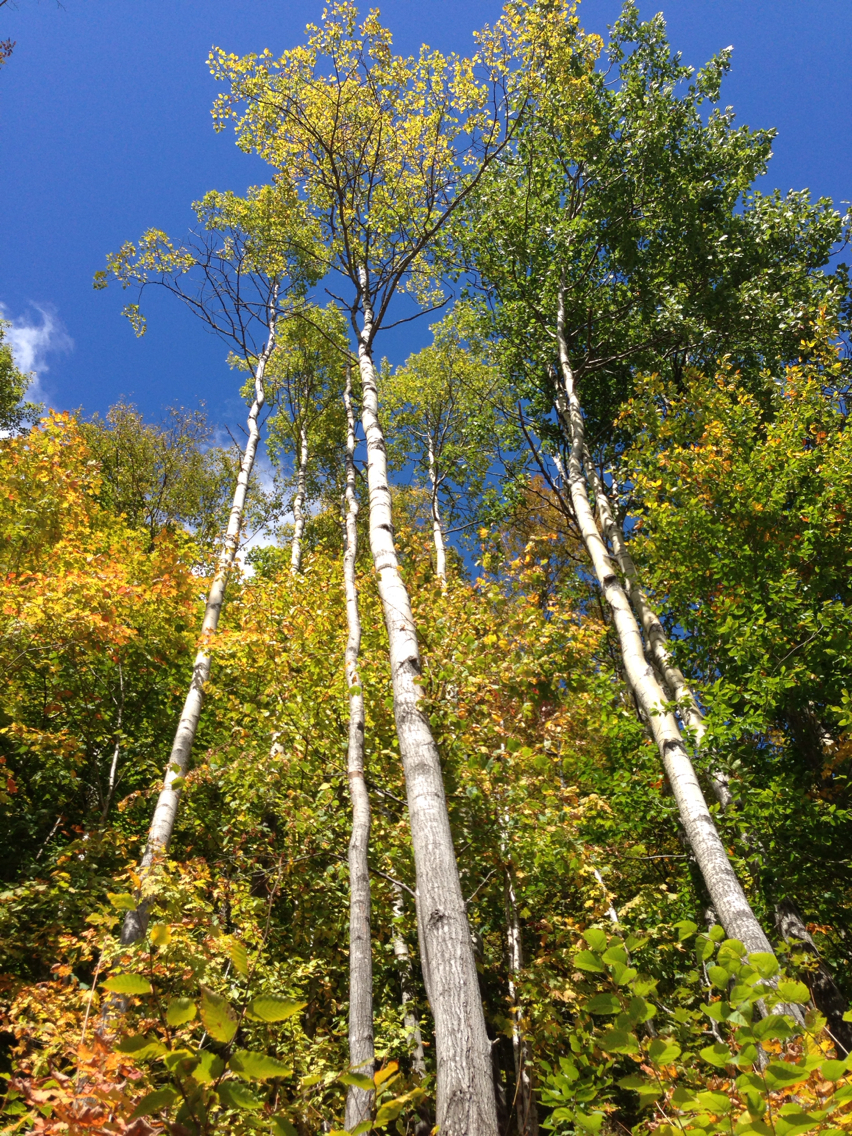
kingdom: Plantae
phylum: Tracheophyta
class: Magnoliopsida
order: Malpighiales
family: Salicaceae
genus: Populus
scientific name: Populus tremuloides
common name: Quaking aspen
